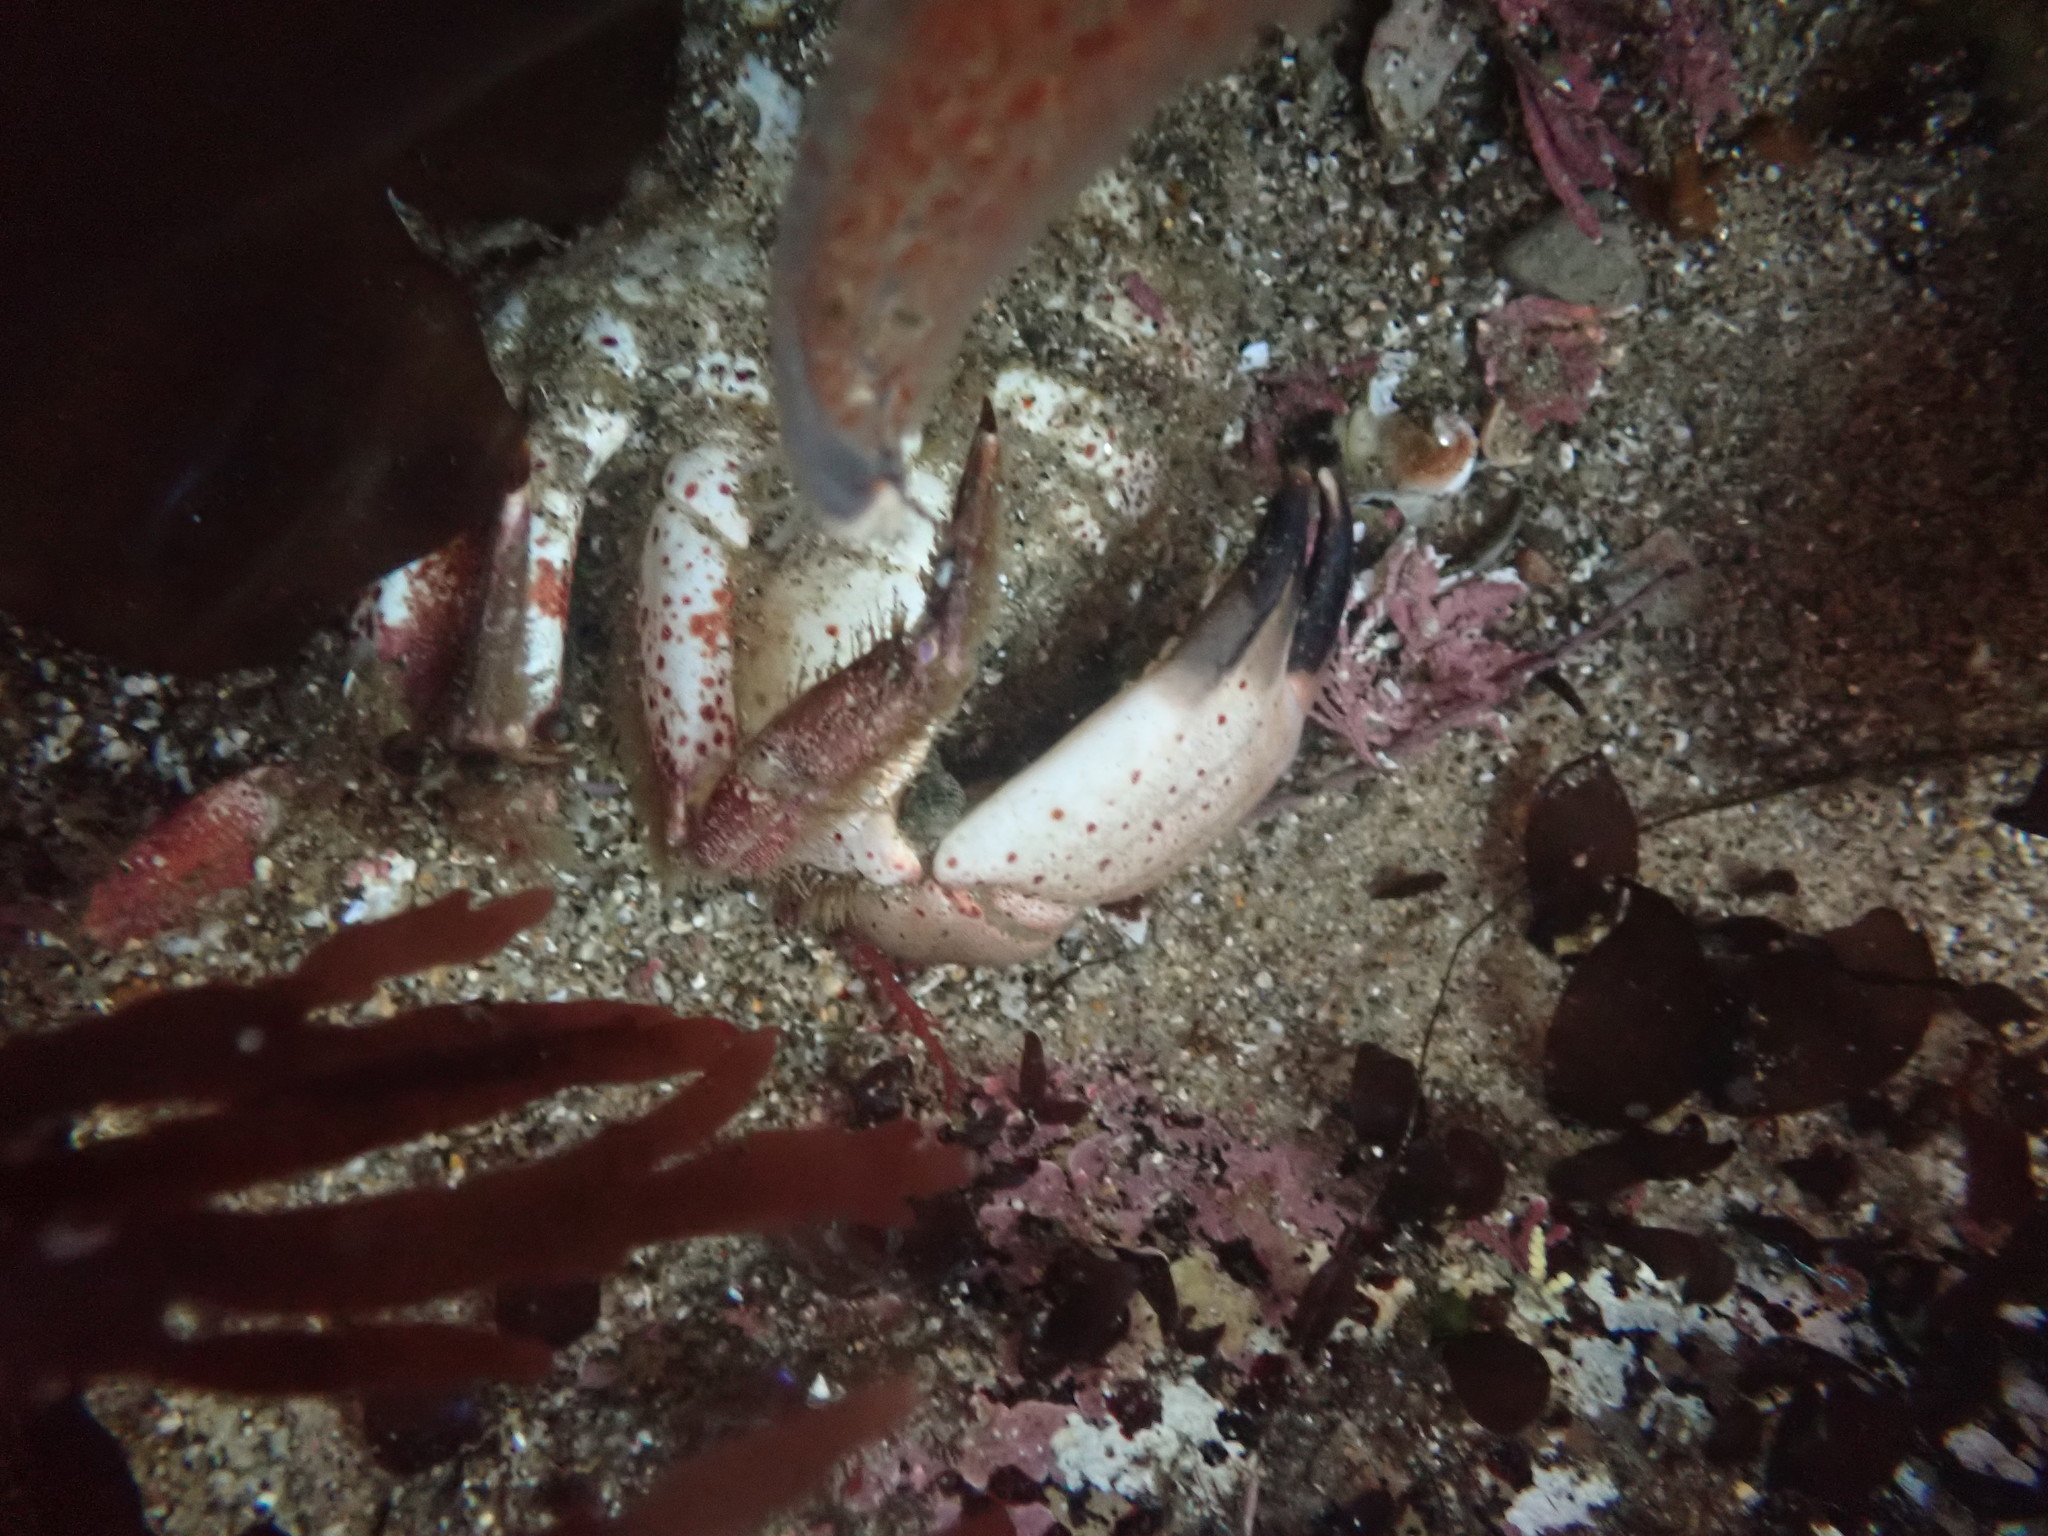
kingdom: Animalia
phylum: Arthropoda
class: Malacostraca
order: Decapoda
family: Cancridae
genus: Romaleon
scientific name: Romaleon antennarium
